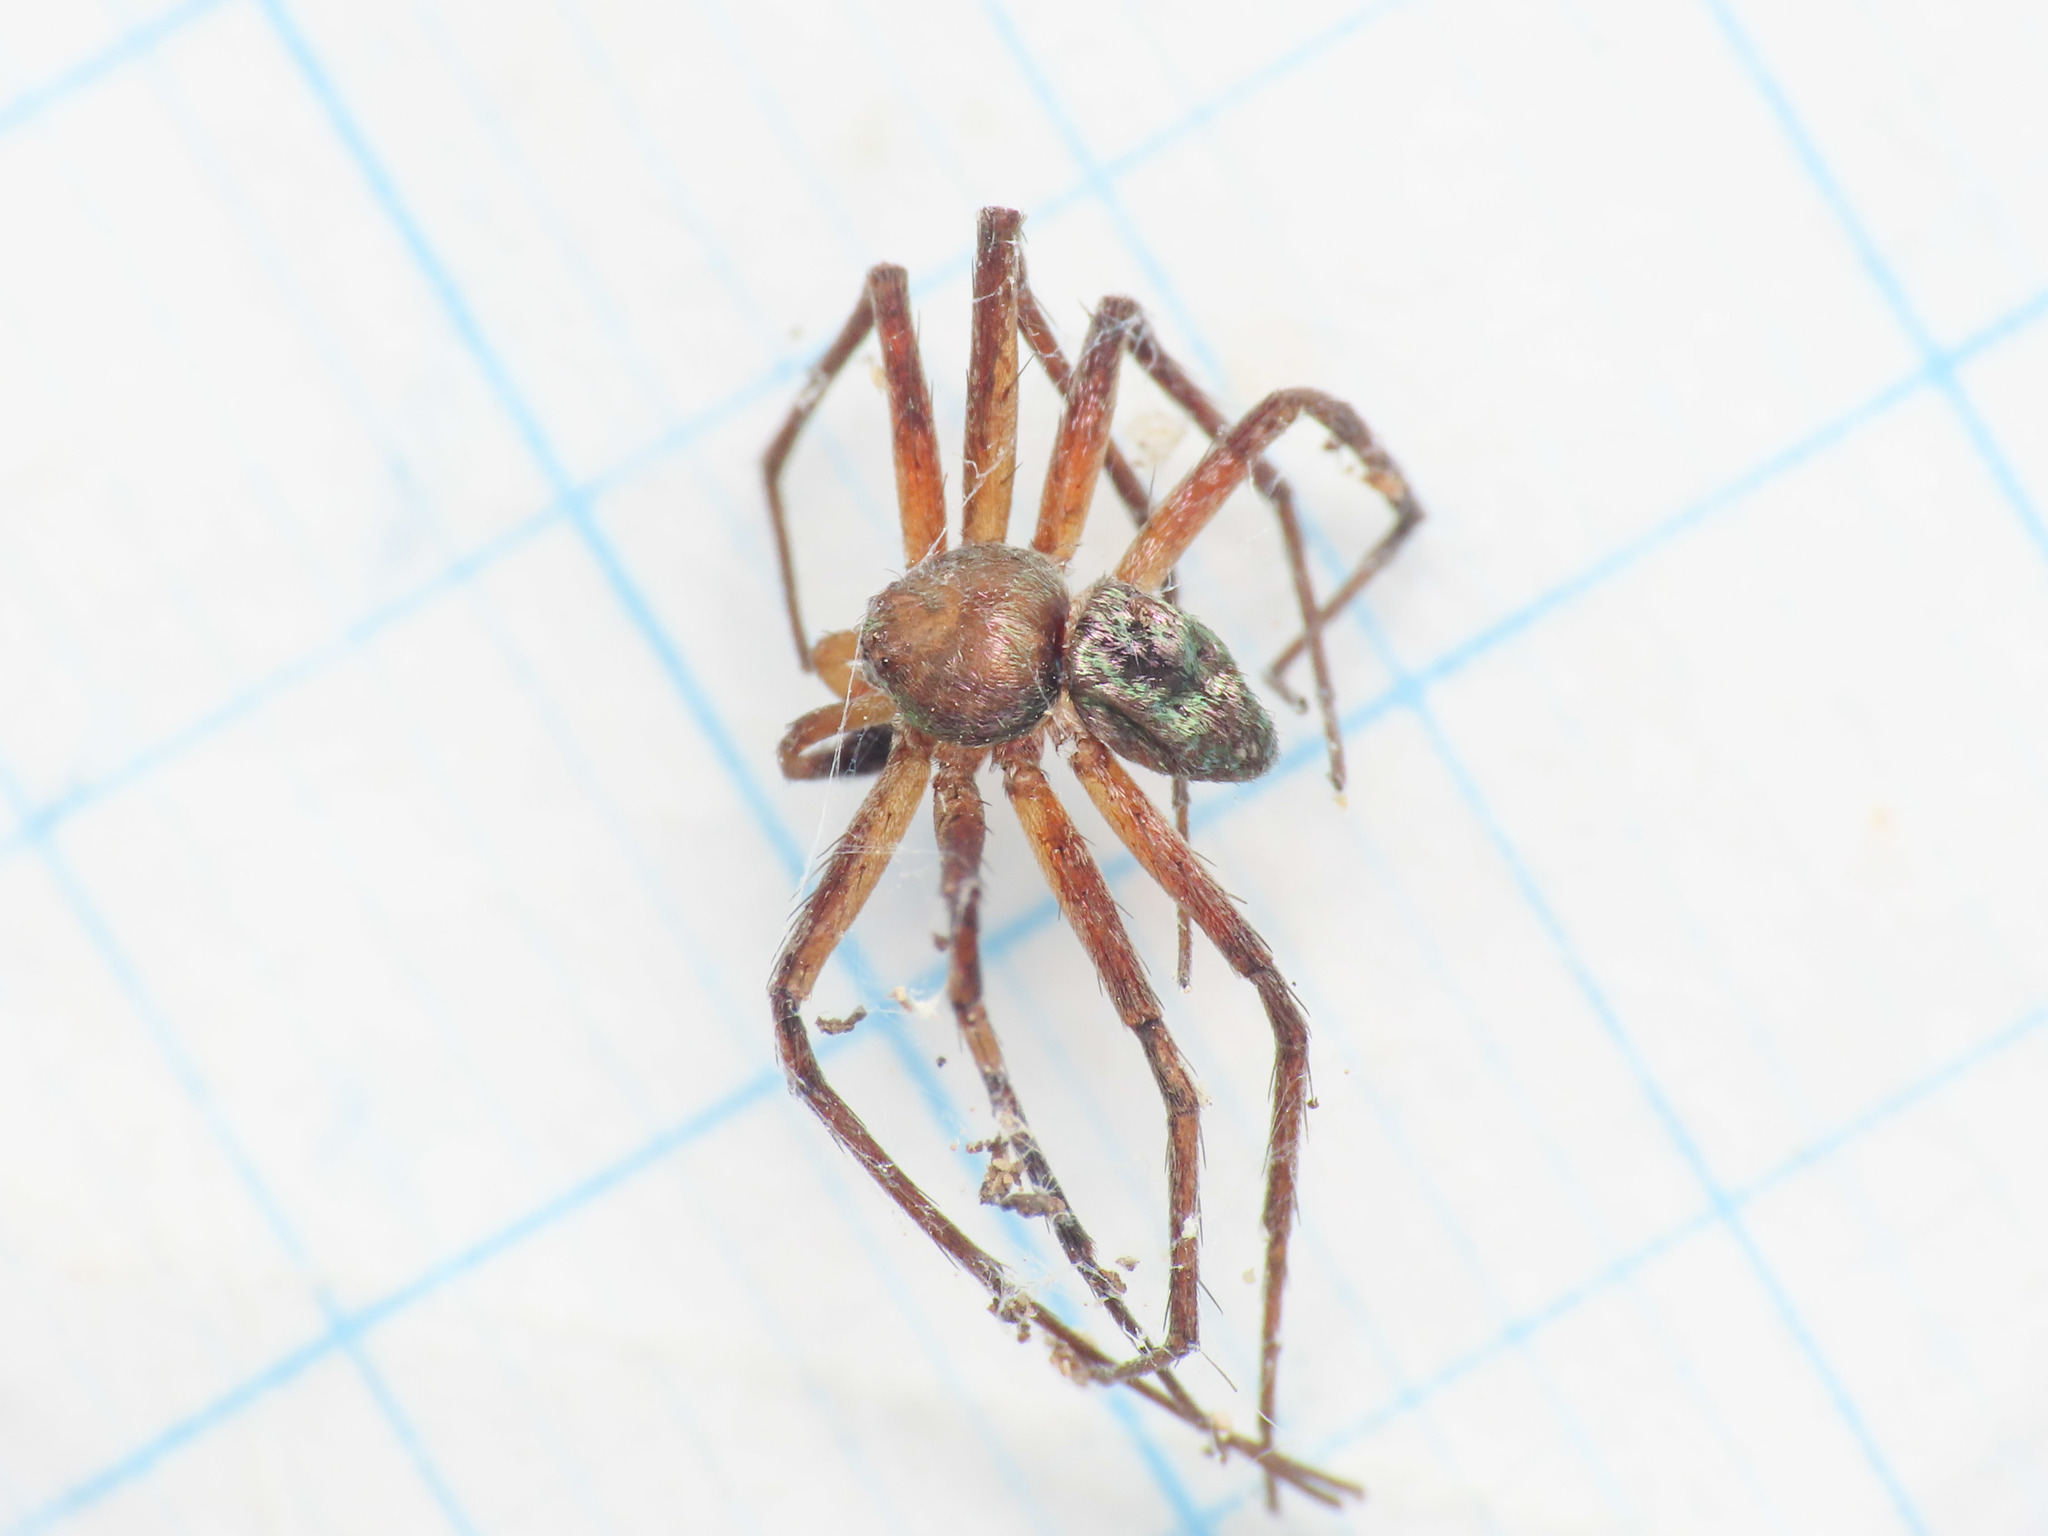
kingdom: Animalia
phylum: Arthropoda
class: Arachnida
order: Araneae
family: Philodromidae
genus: Philodromus
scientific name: Philodromus collinus
